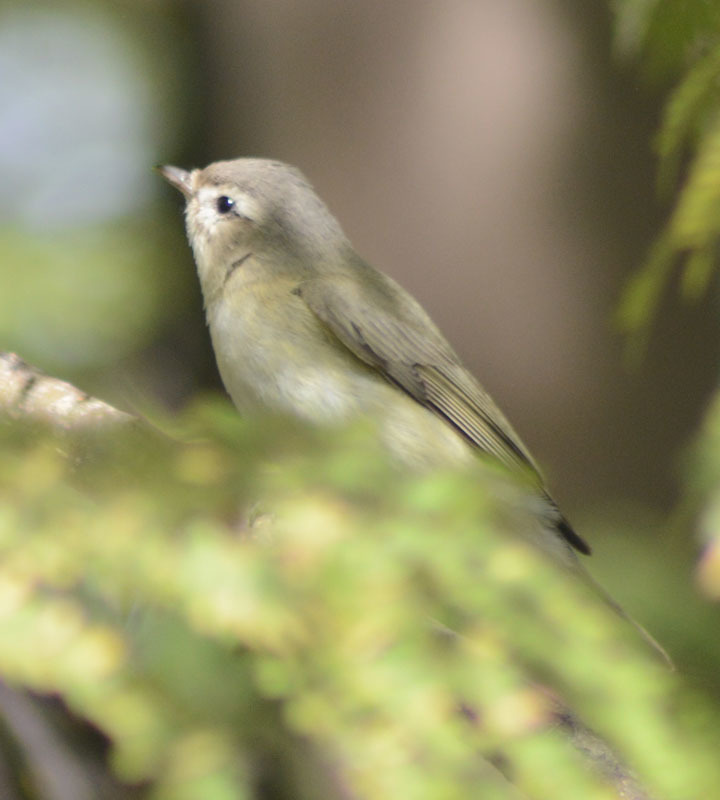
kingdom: Animalia
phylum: Chordata
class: Aves
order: Passeriformes
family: Vireonidae
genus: Vireo
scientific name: Vireo gilvus
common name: Warbling vireo
